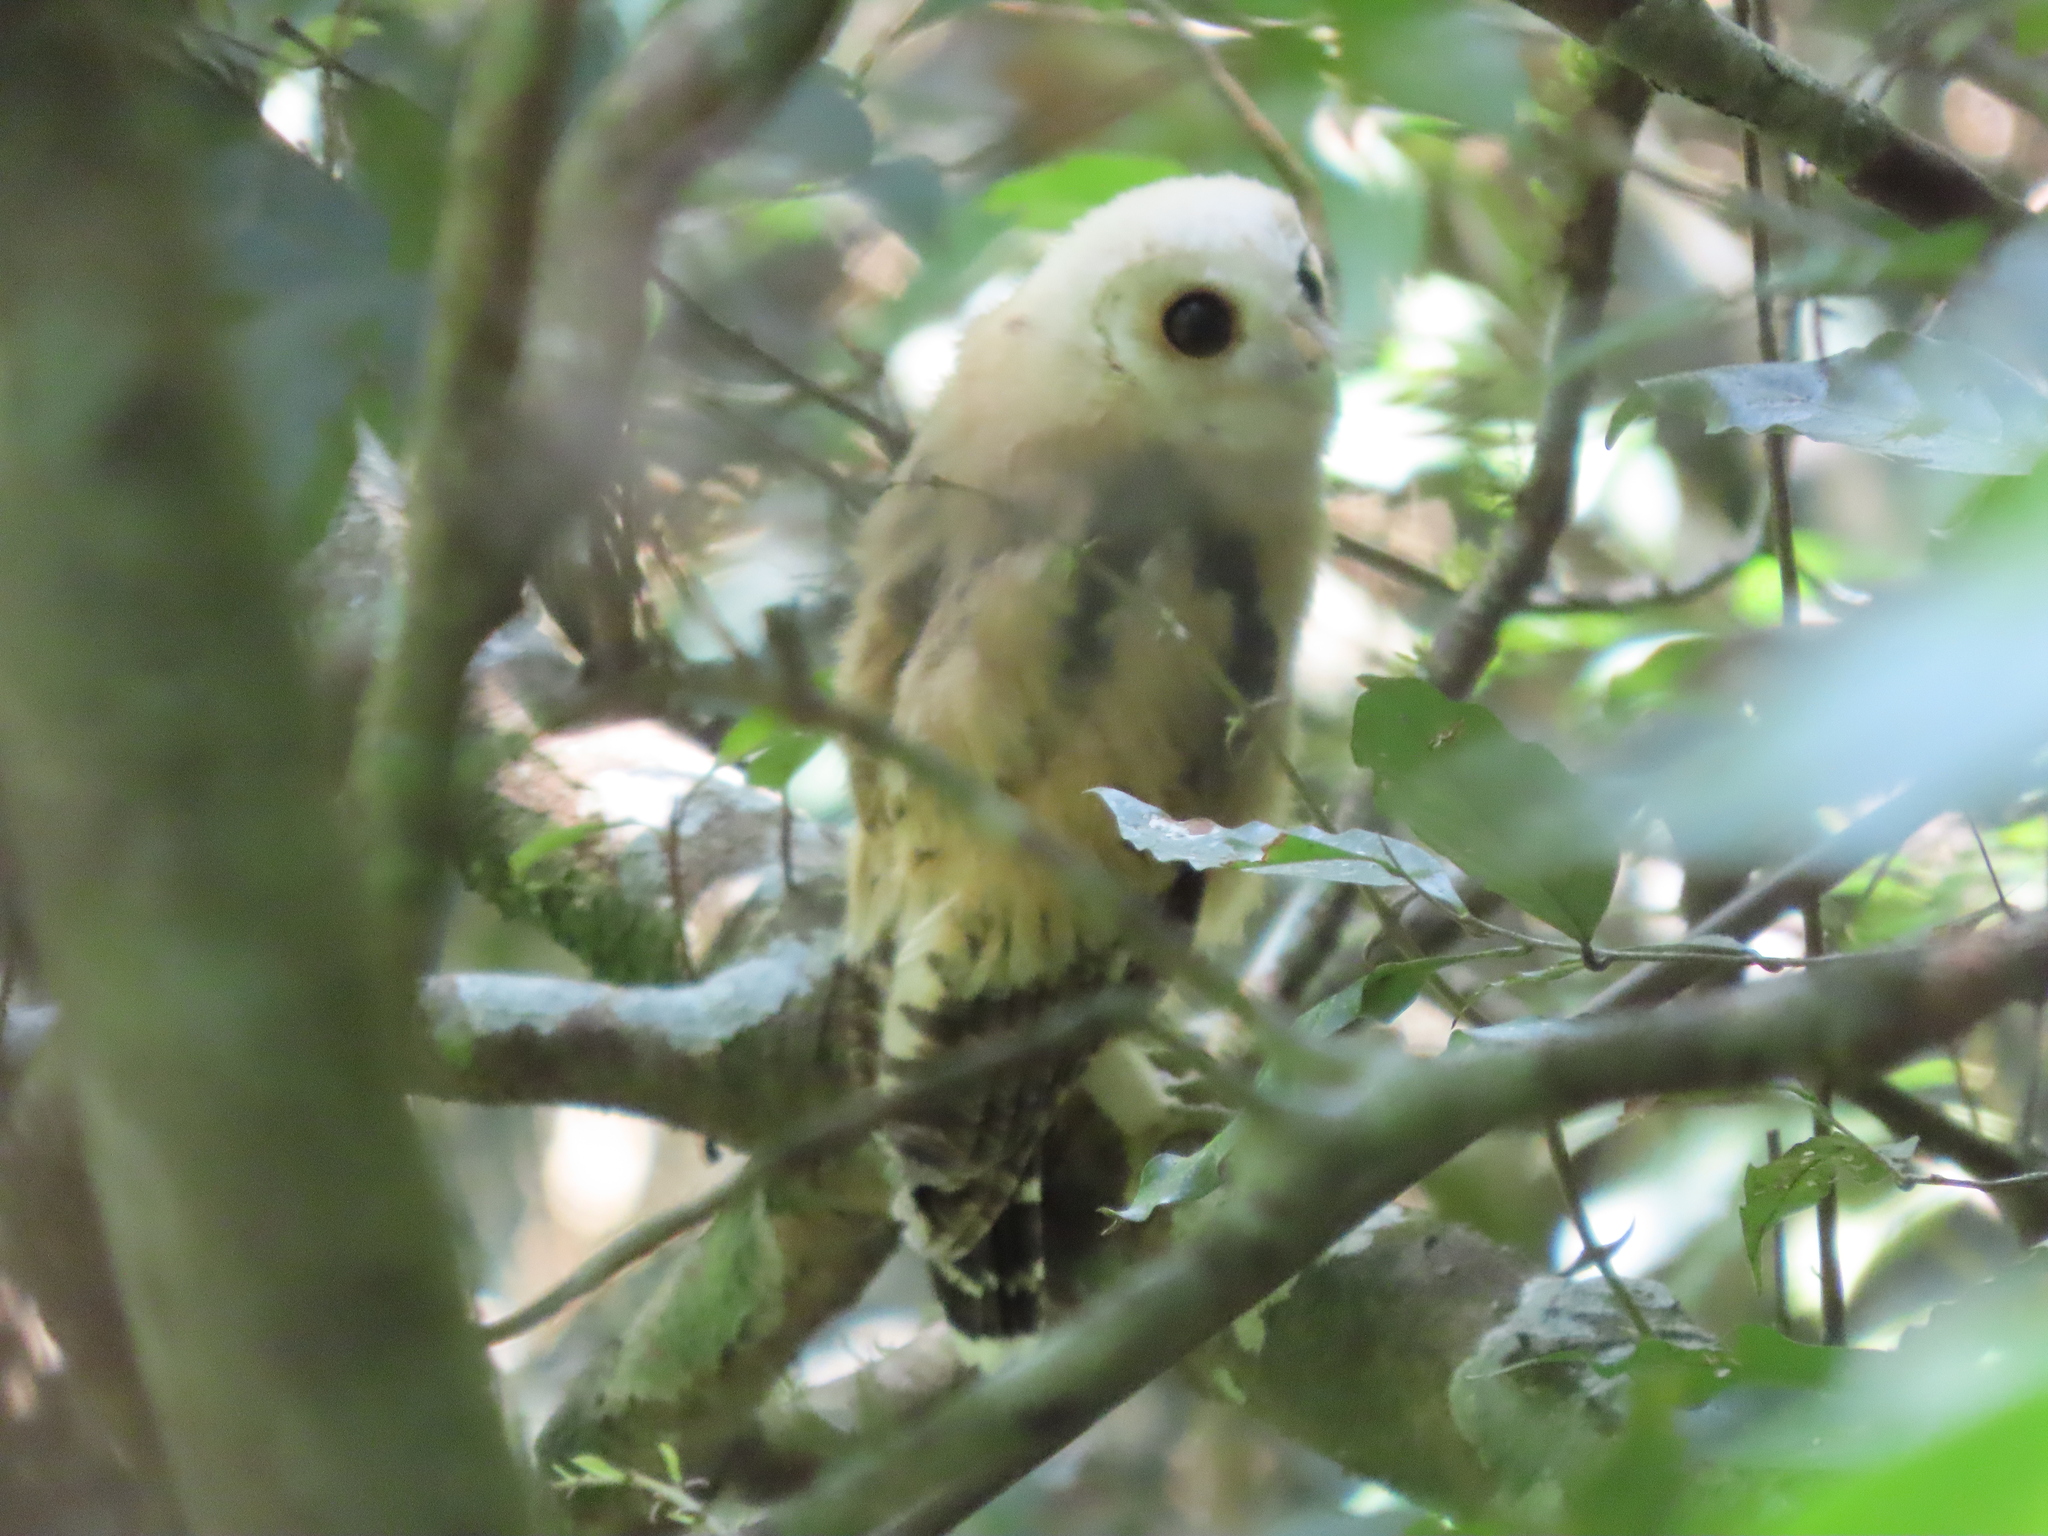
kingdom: Animalia
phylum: Chordata
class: Aves
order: Strigiformes
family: Strigidae
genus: Strix
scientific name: Strix virgata
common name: Mottled owl
